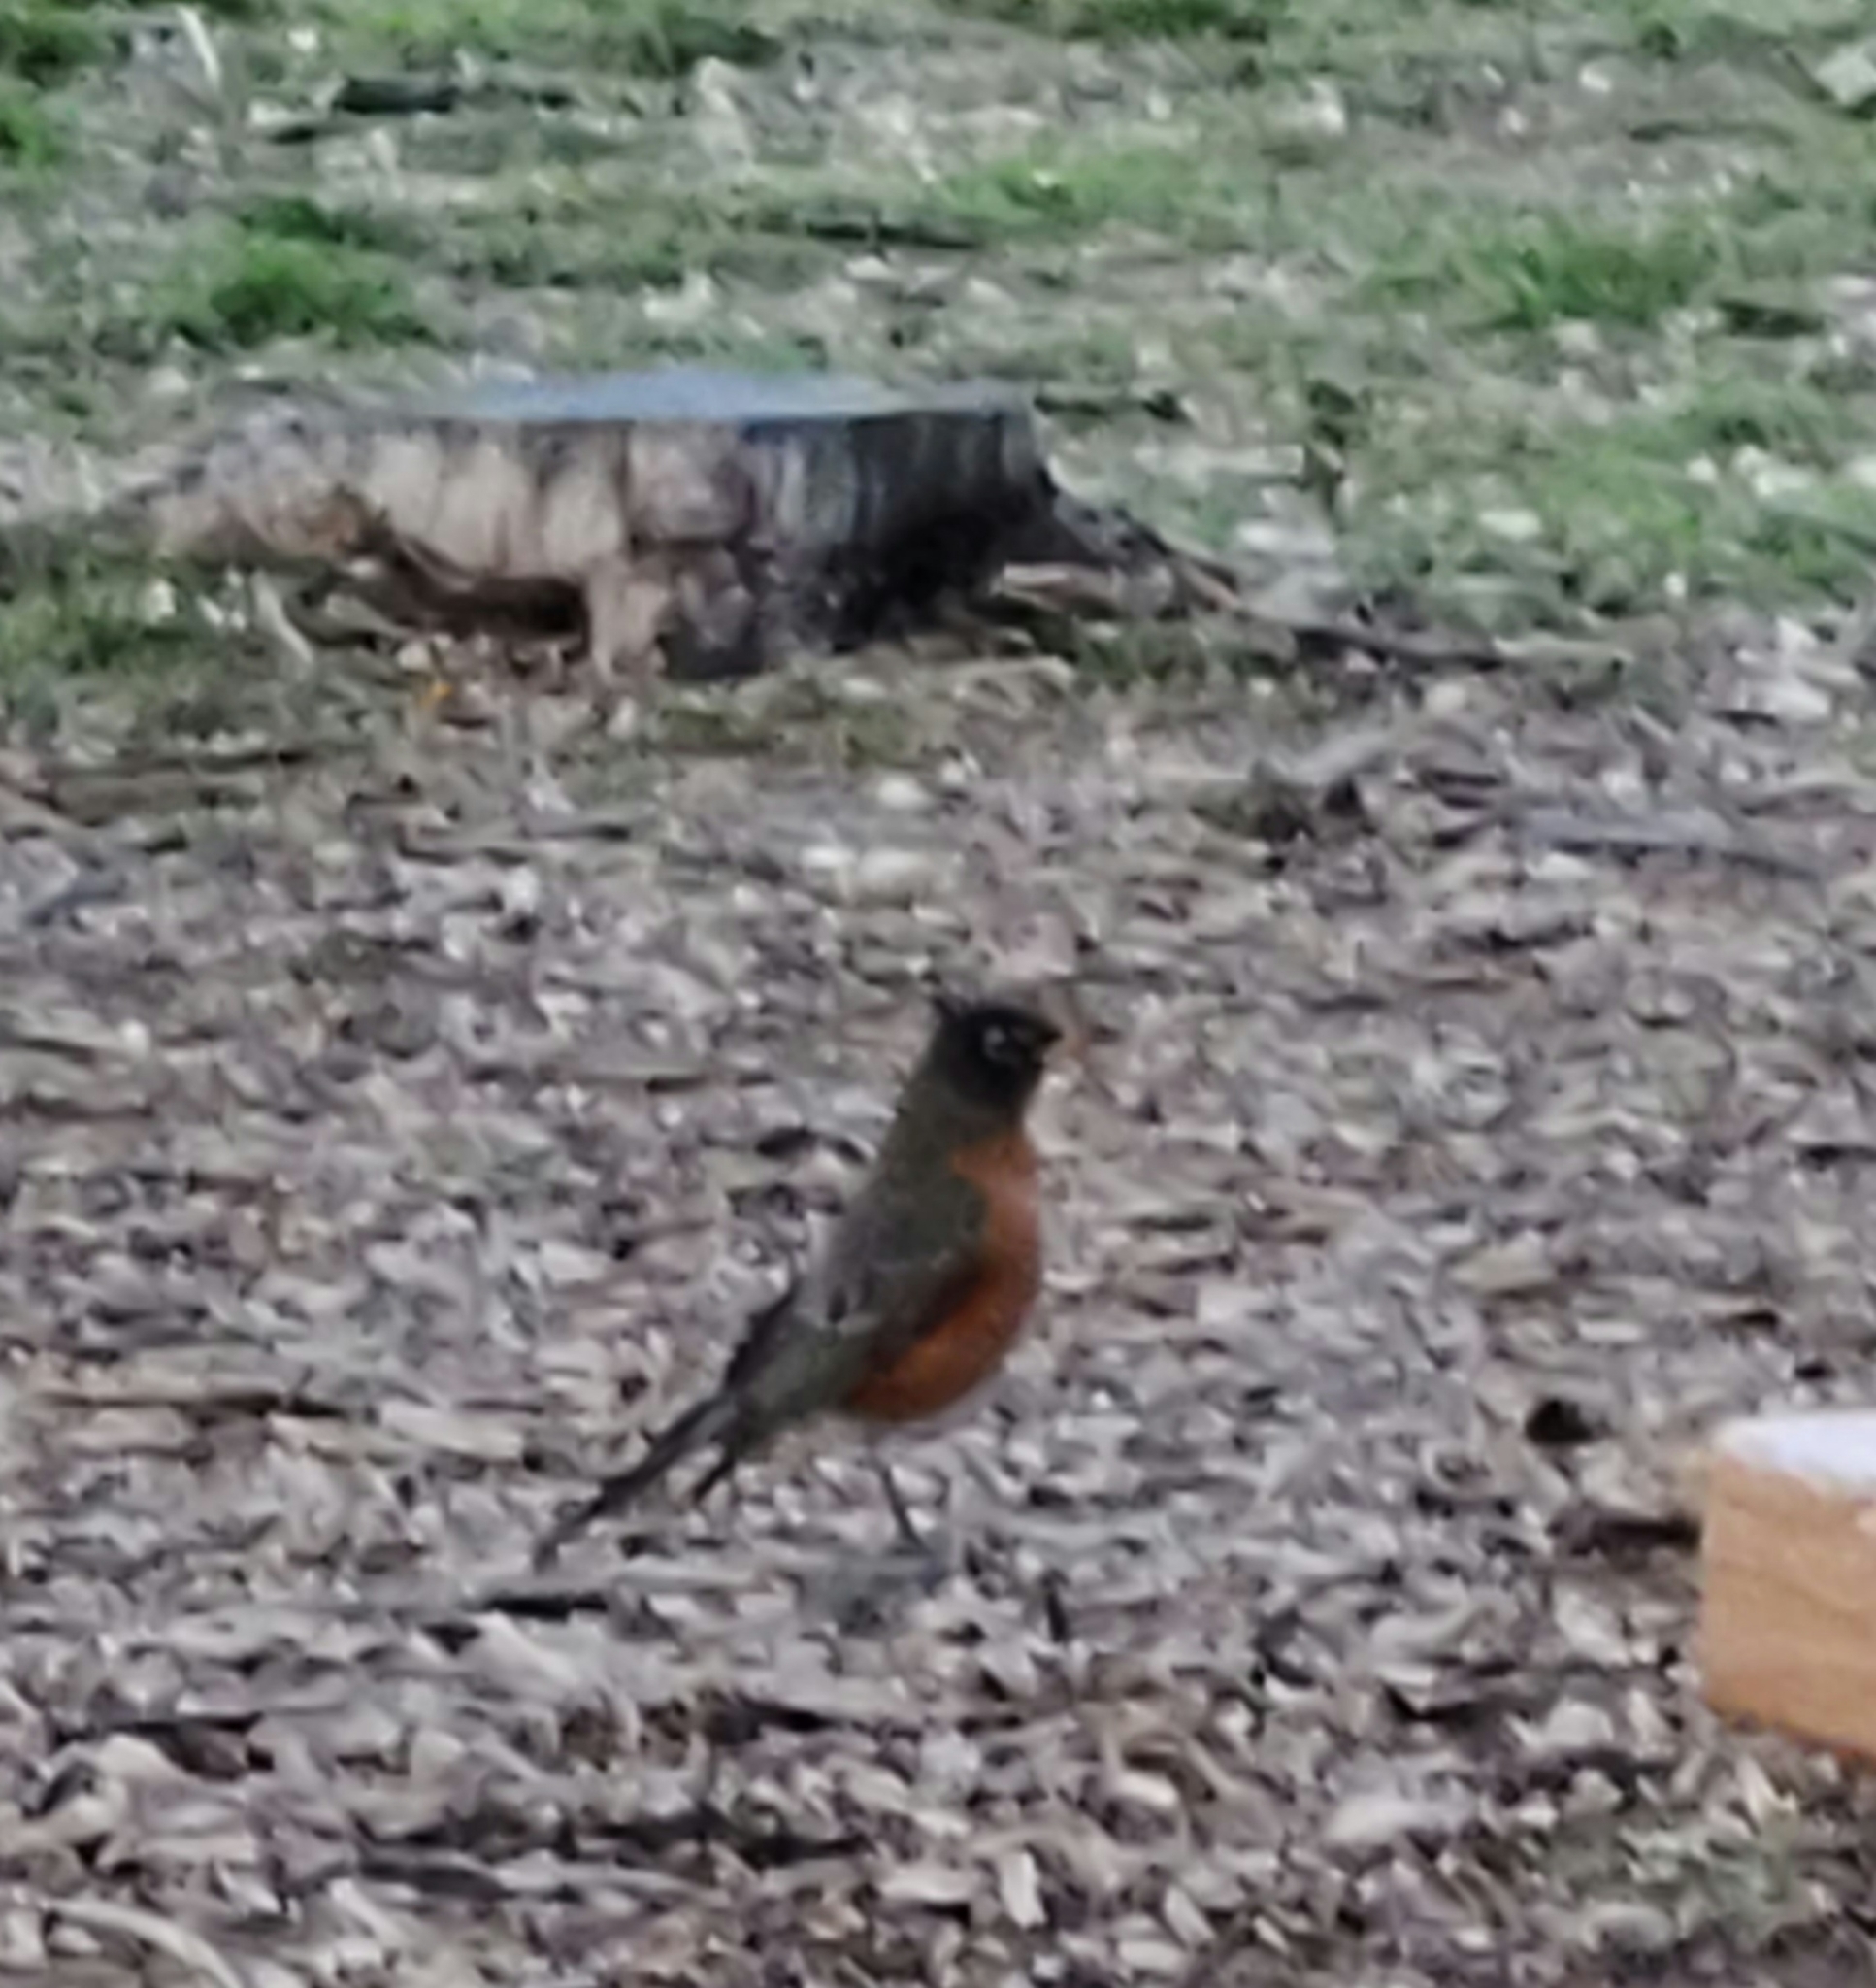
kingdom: Animalia
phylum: Chordata
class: Aves
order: Passeriformes
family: Turdidae
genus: Turdus
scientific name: Turdus migratorius
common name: American robin
